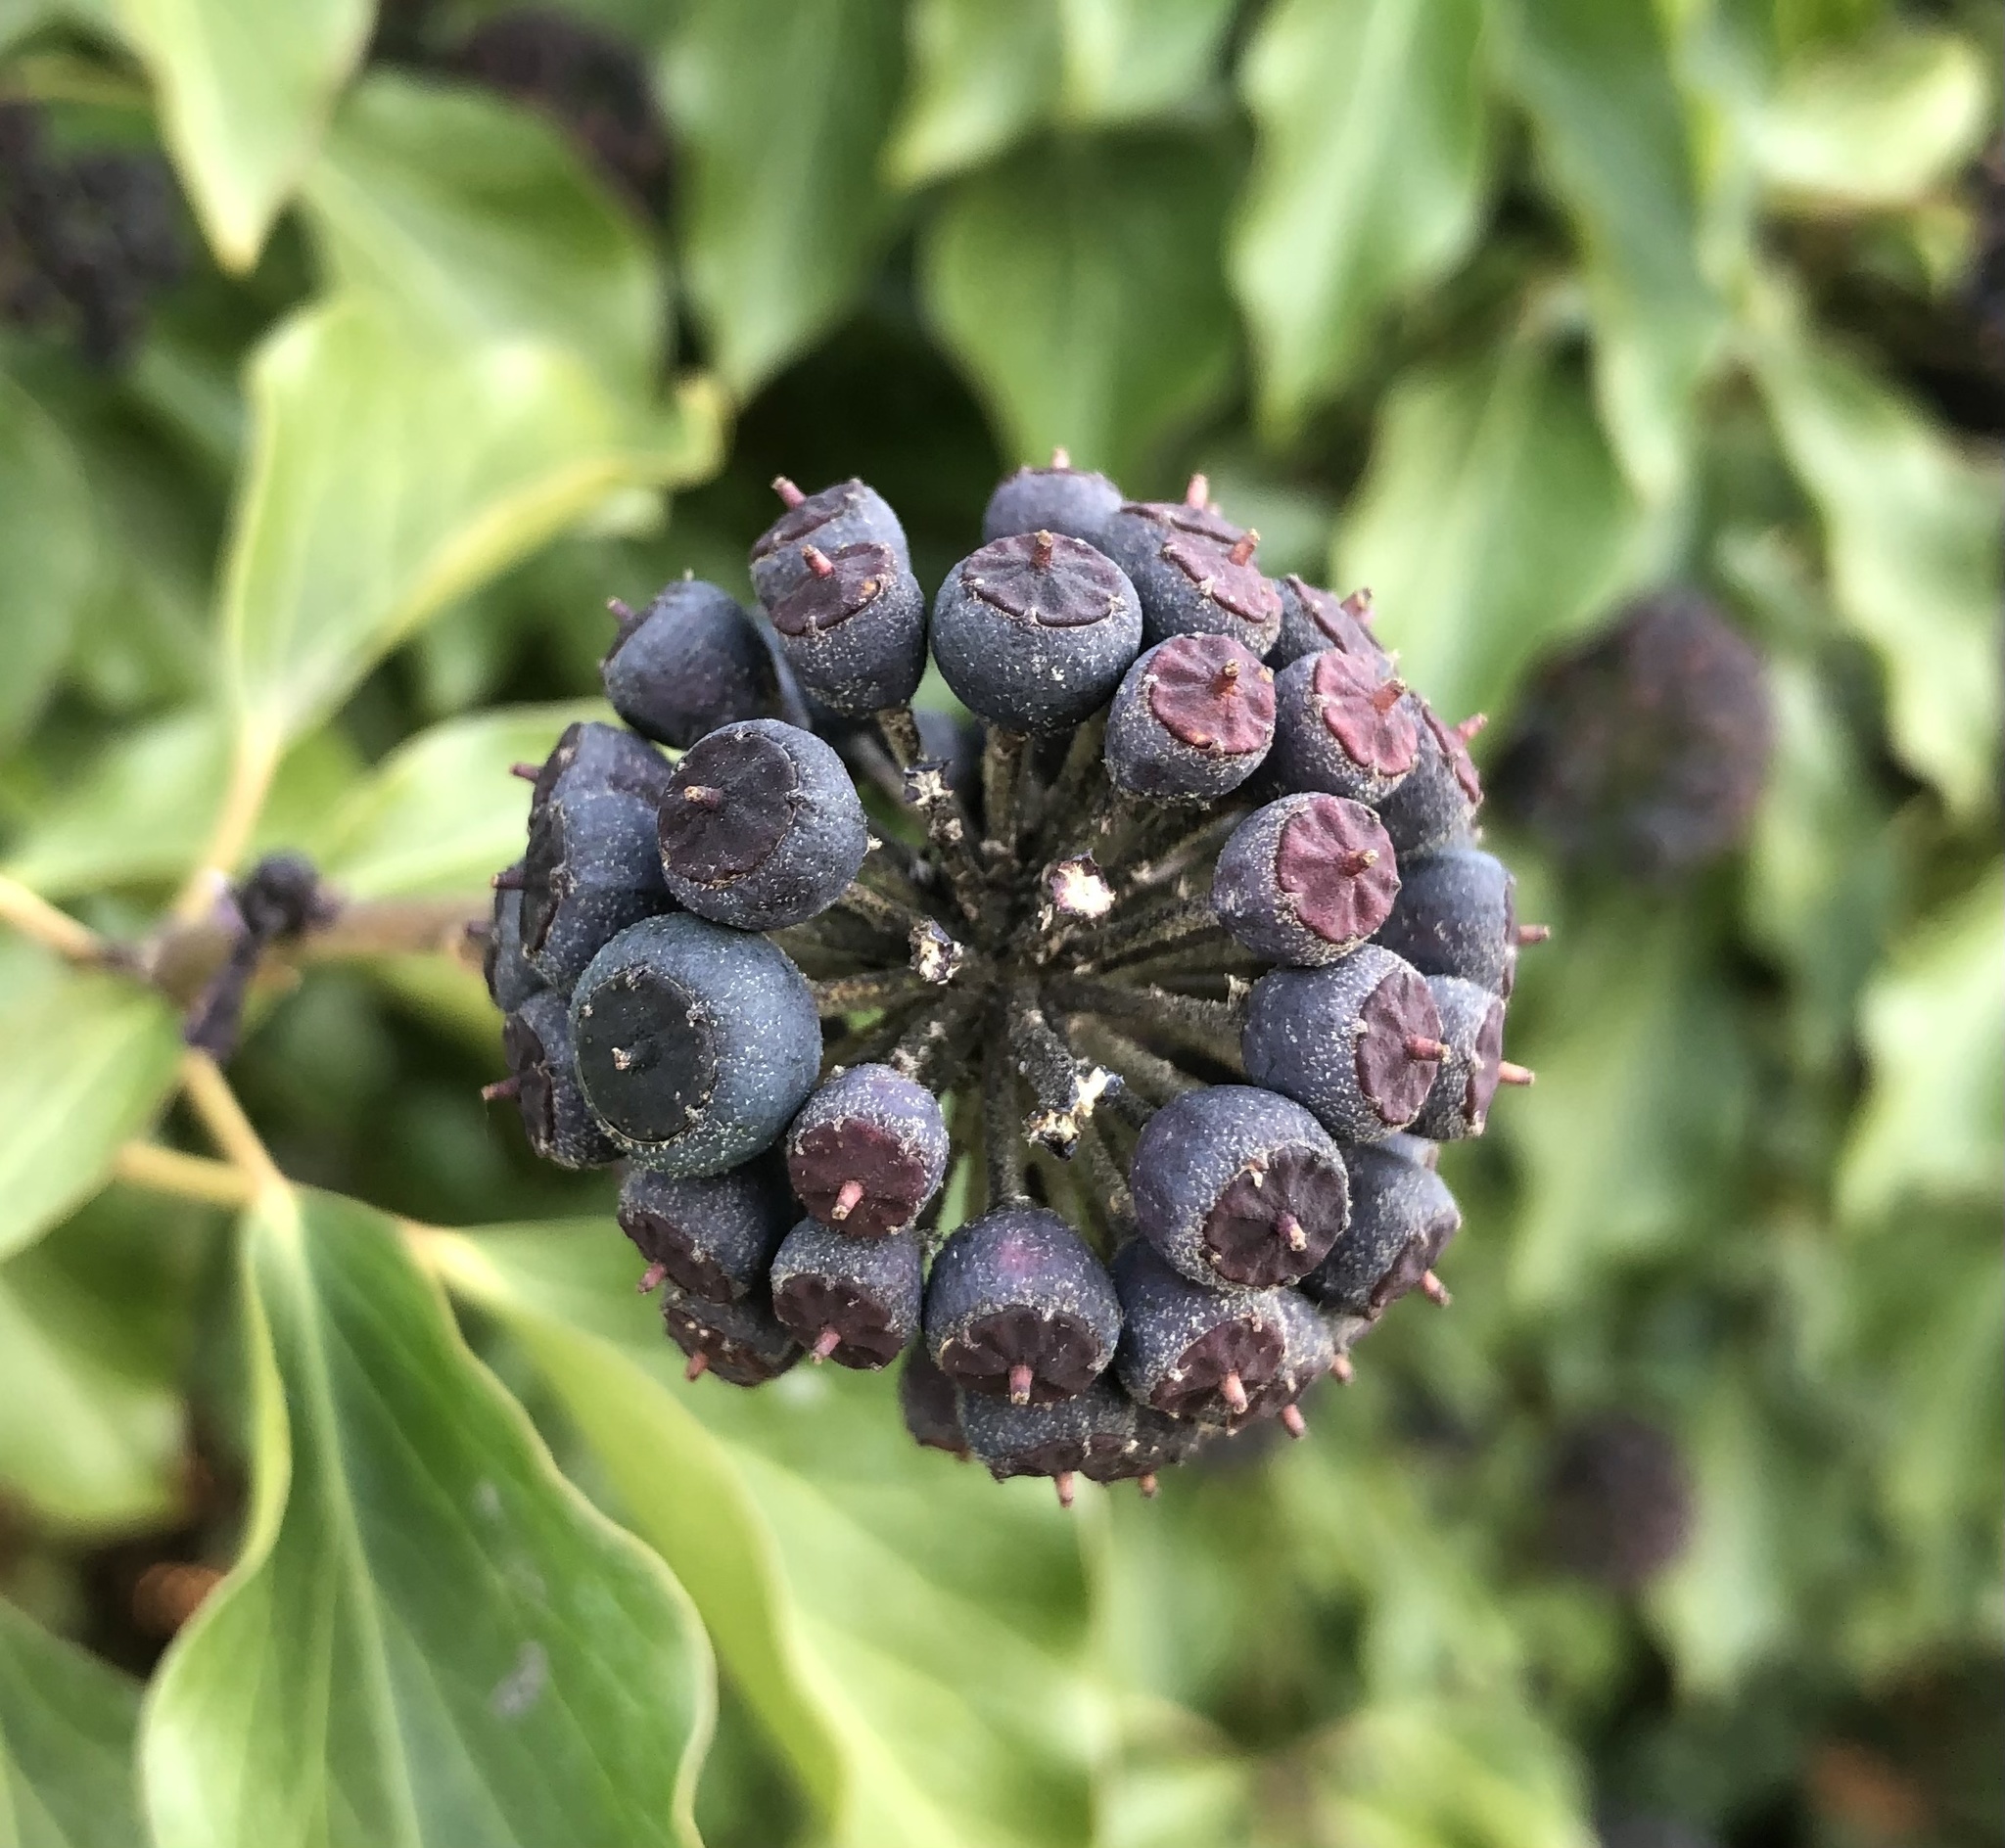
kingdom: Plantae
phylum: Tracheophyta
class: Magnoliopsida
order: Apiales
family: Araliaceae
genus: Hedera
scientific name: Hedera helix
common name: Ivy
